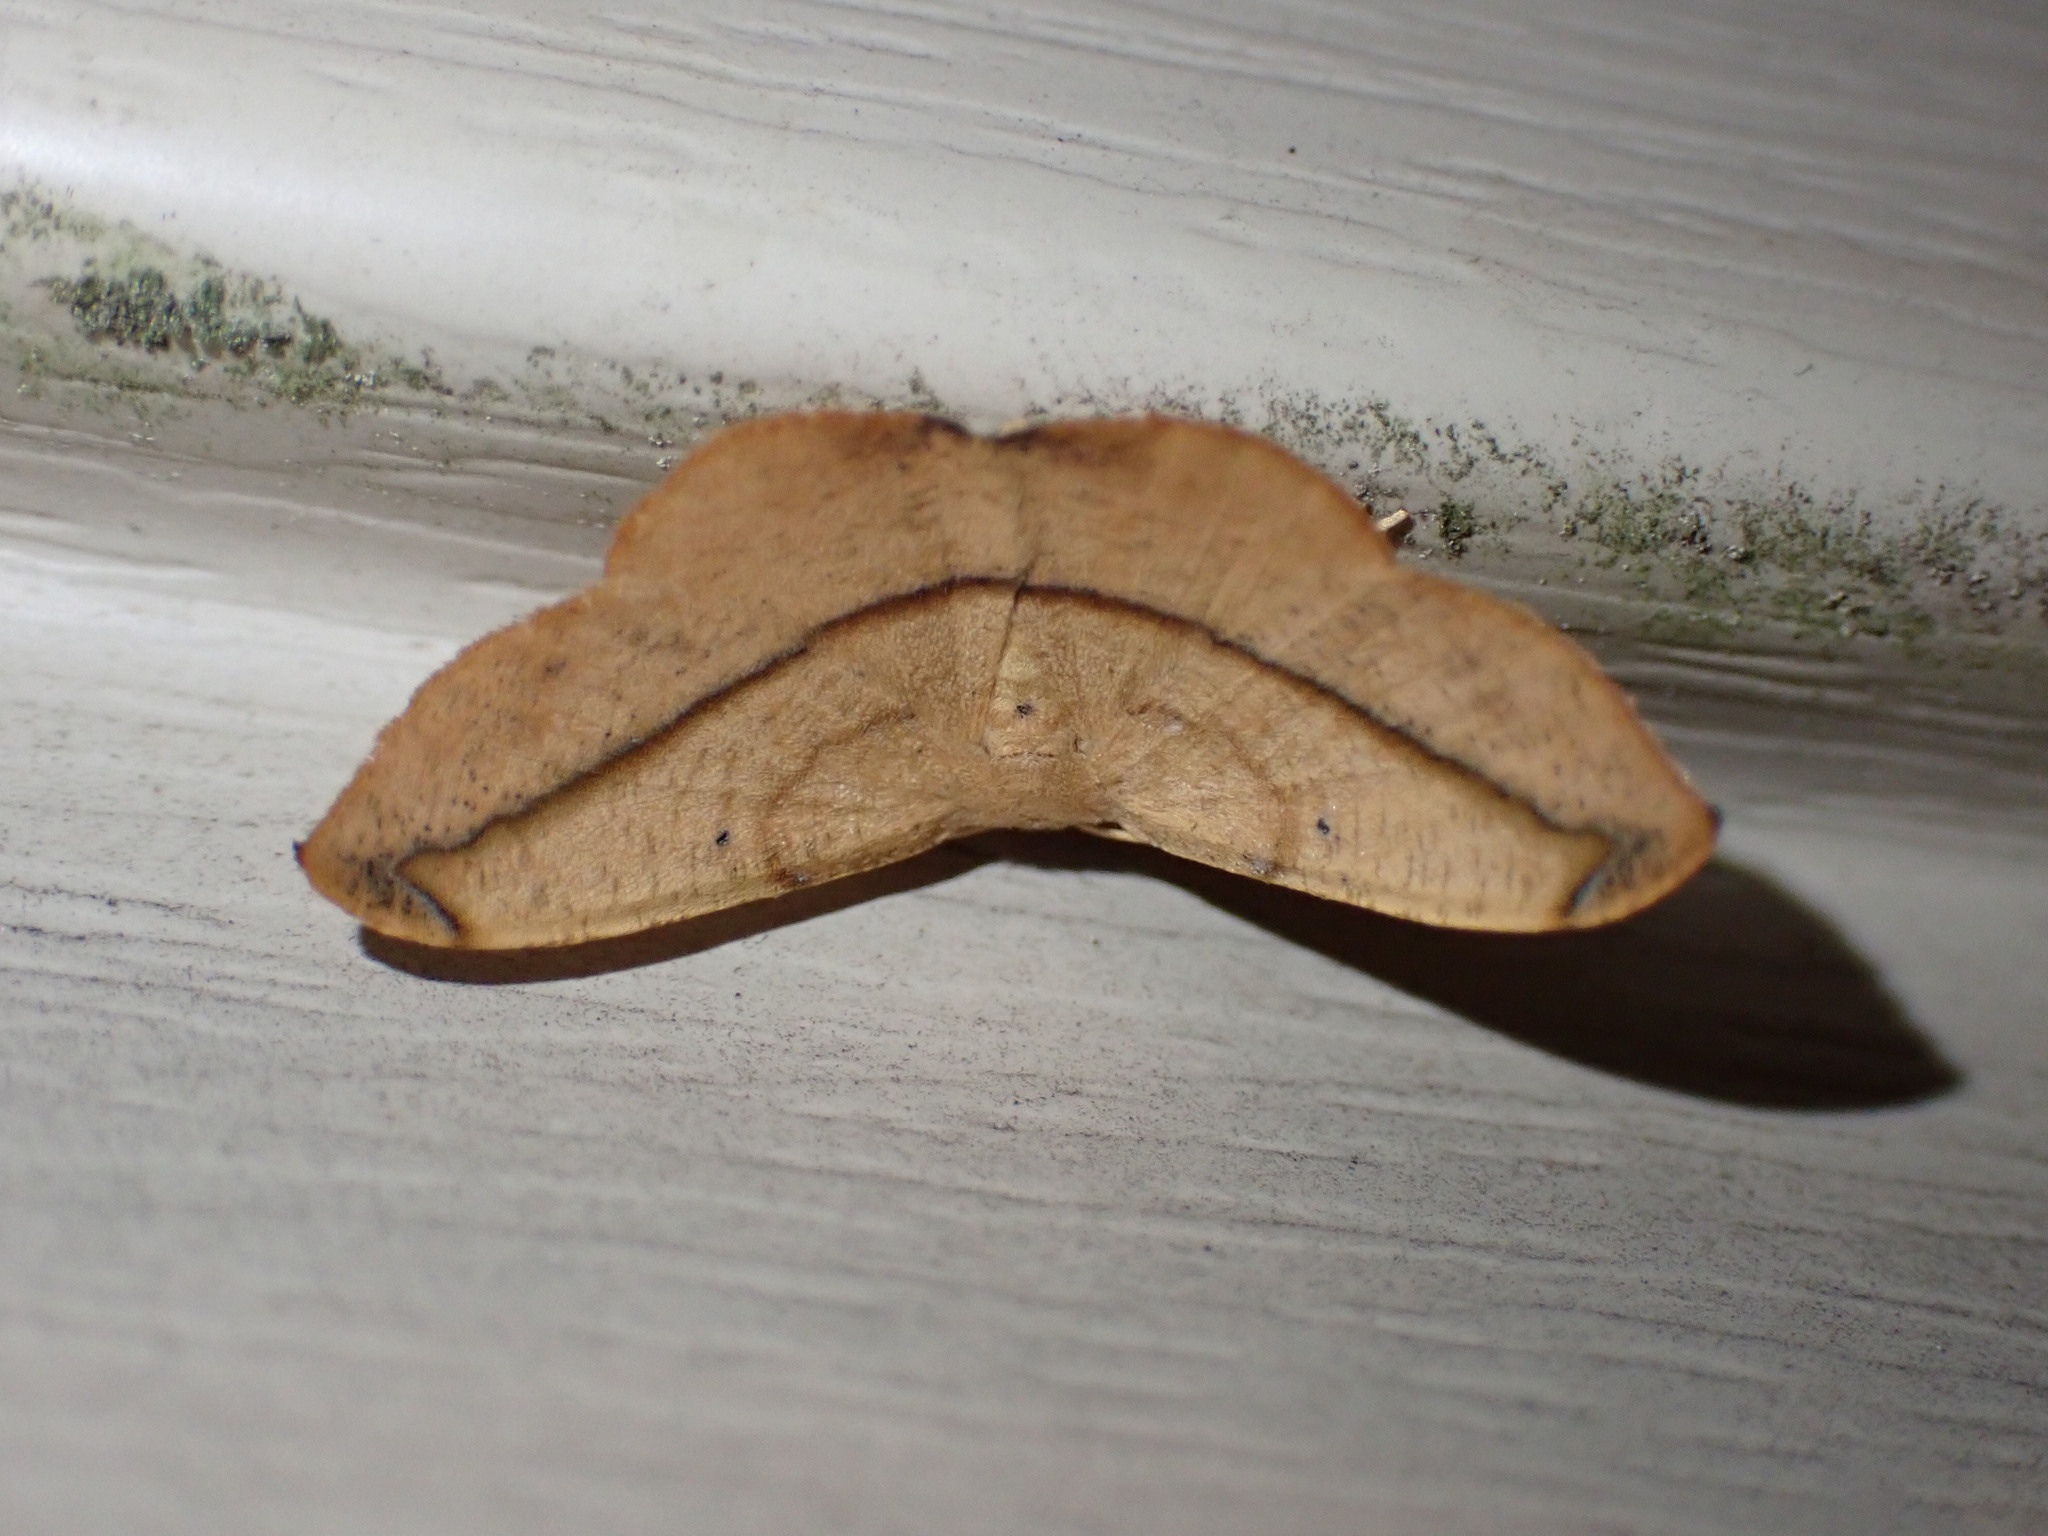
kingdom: Animalia
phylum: Arthropoda
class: Insecta
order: Lepidoptera
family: Geometridae
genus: Patalene
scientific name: Patalene olyzonaria
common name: Juniper geometer moth
